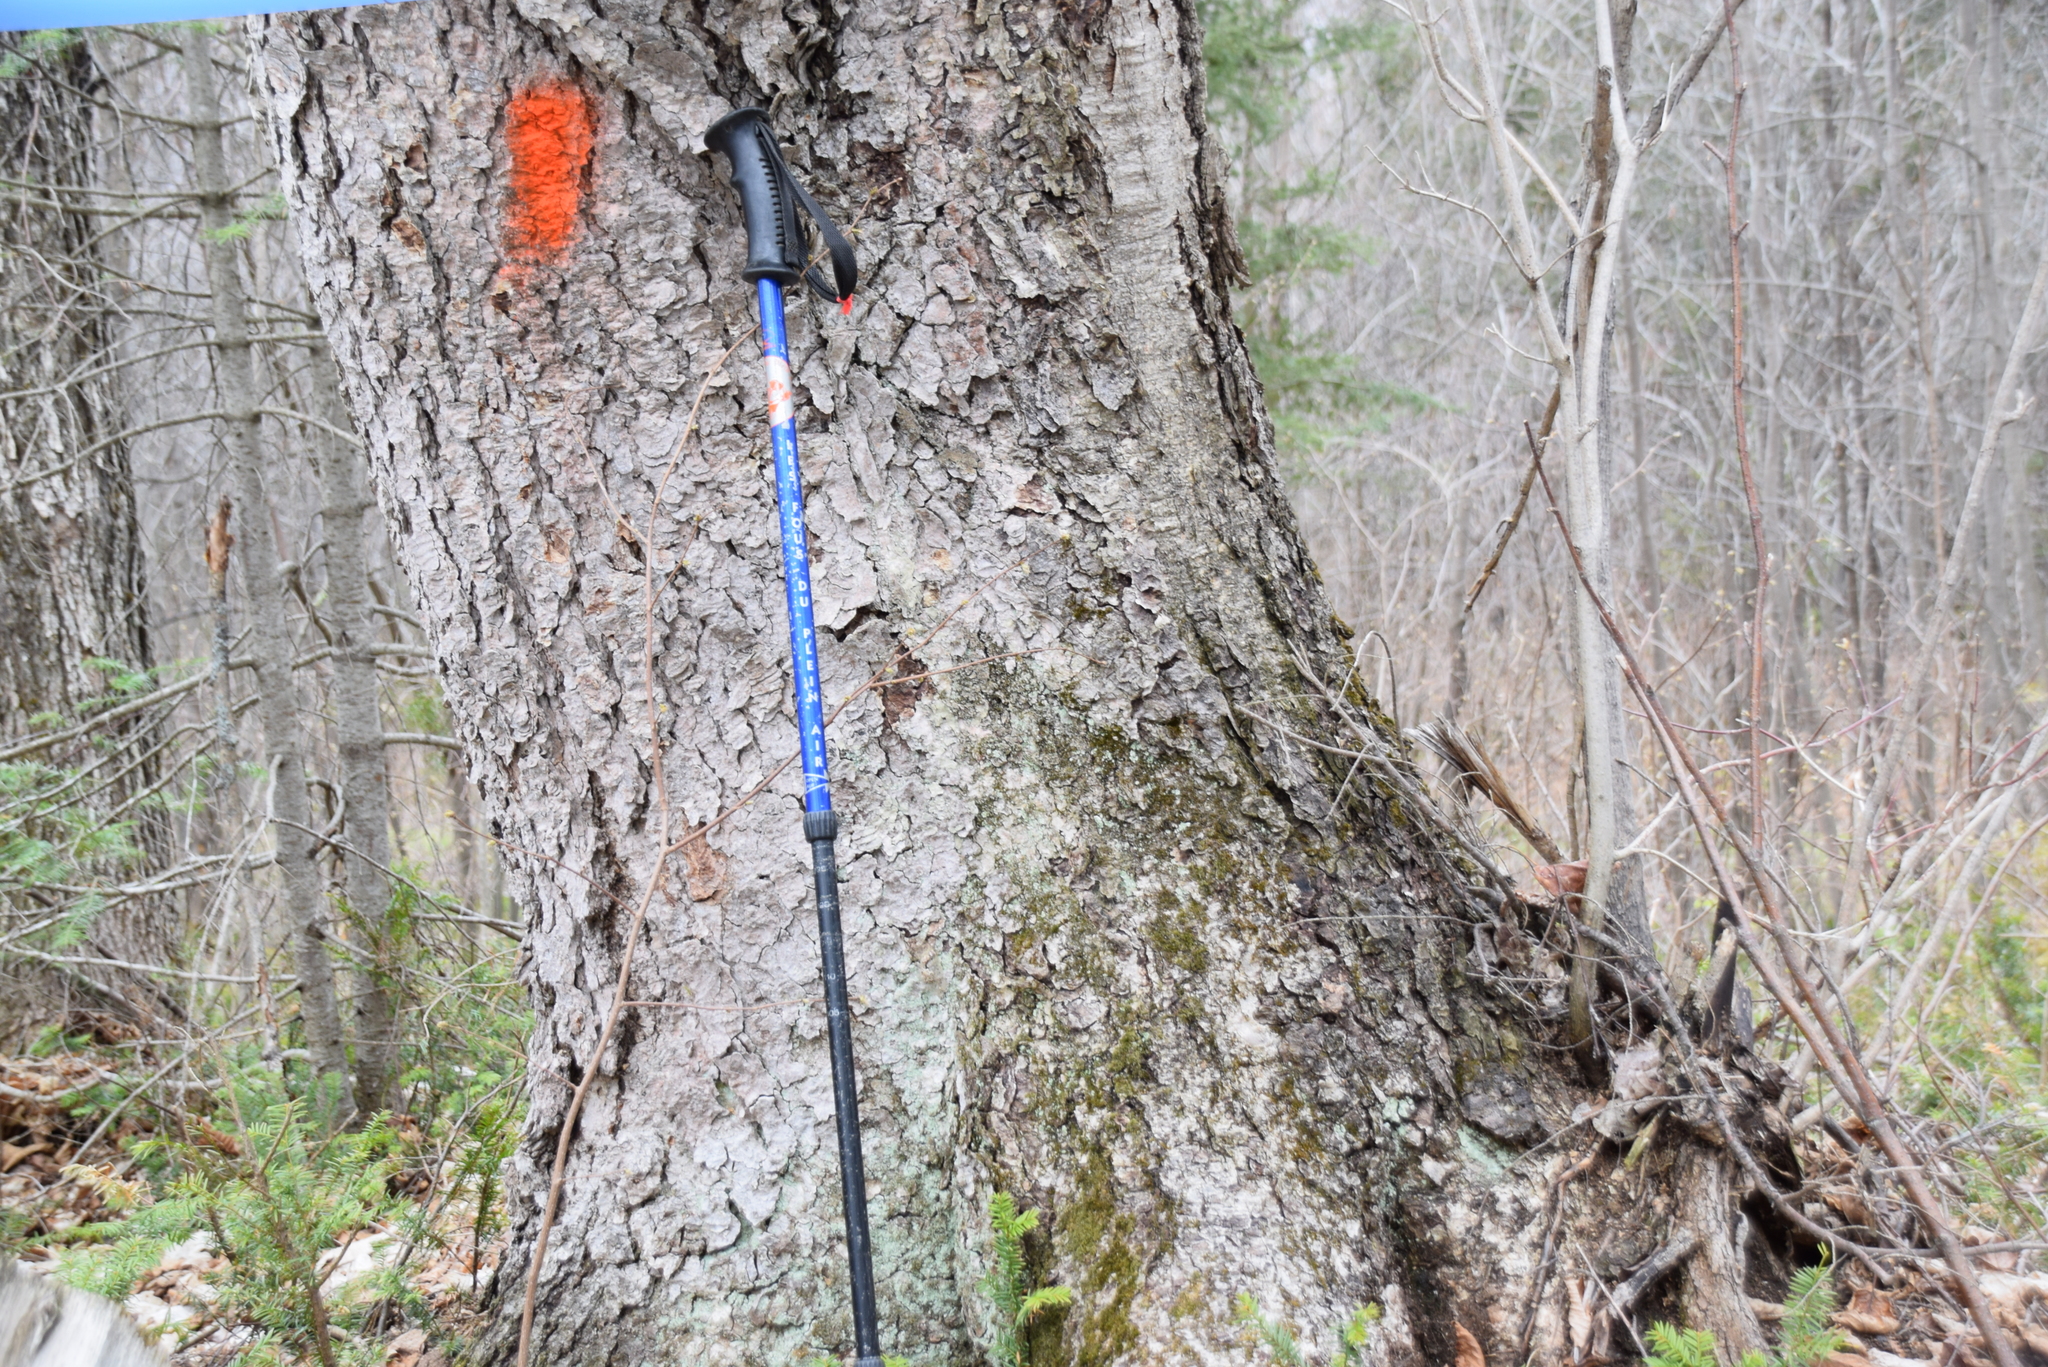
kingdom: Plantae
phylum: Tracheophyta
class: Magnoliopsida
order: Fagales
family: Betulaceae
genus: Betula
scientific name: Betula alleghaniensis
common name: Yellow birch
